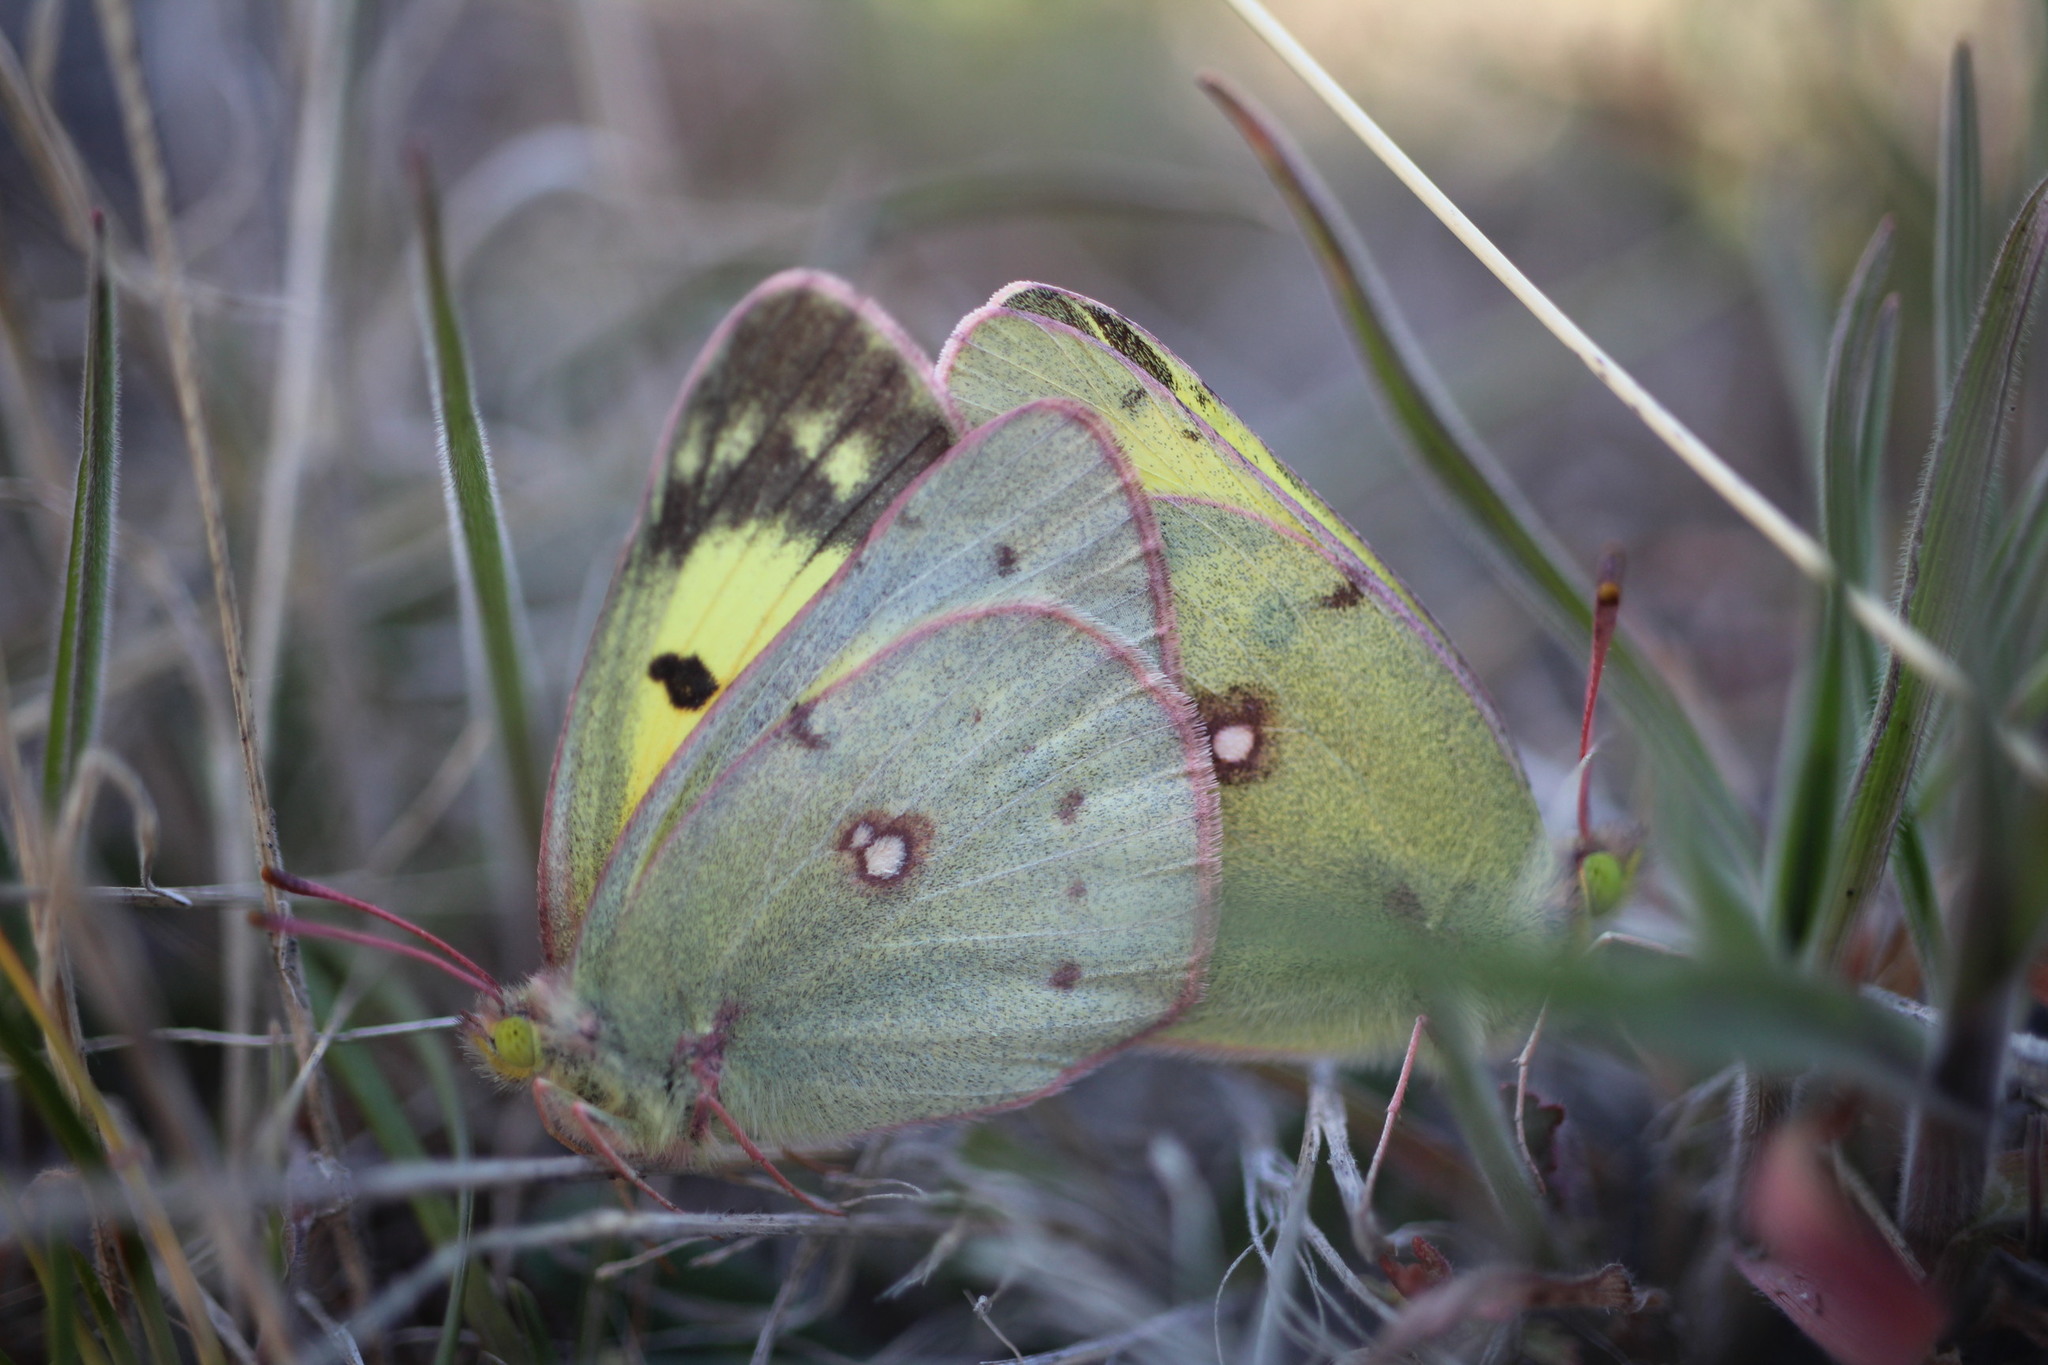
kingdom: Animalia
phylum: Arthropoda
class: Insecta
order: Lepidoptera
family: Pieridae
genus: Colias
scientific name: Colias philodice
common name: Clouded sulphur
